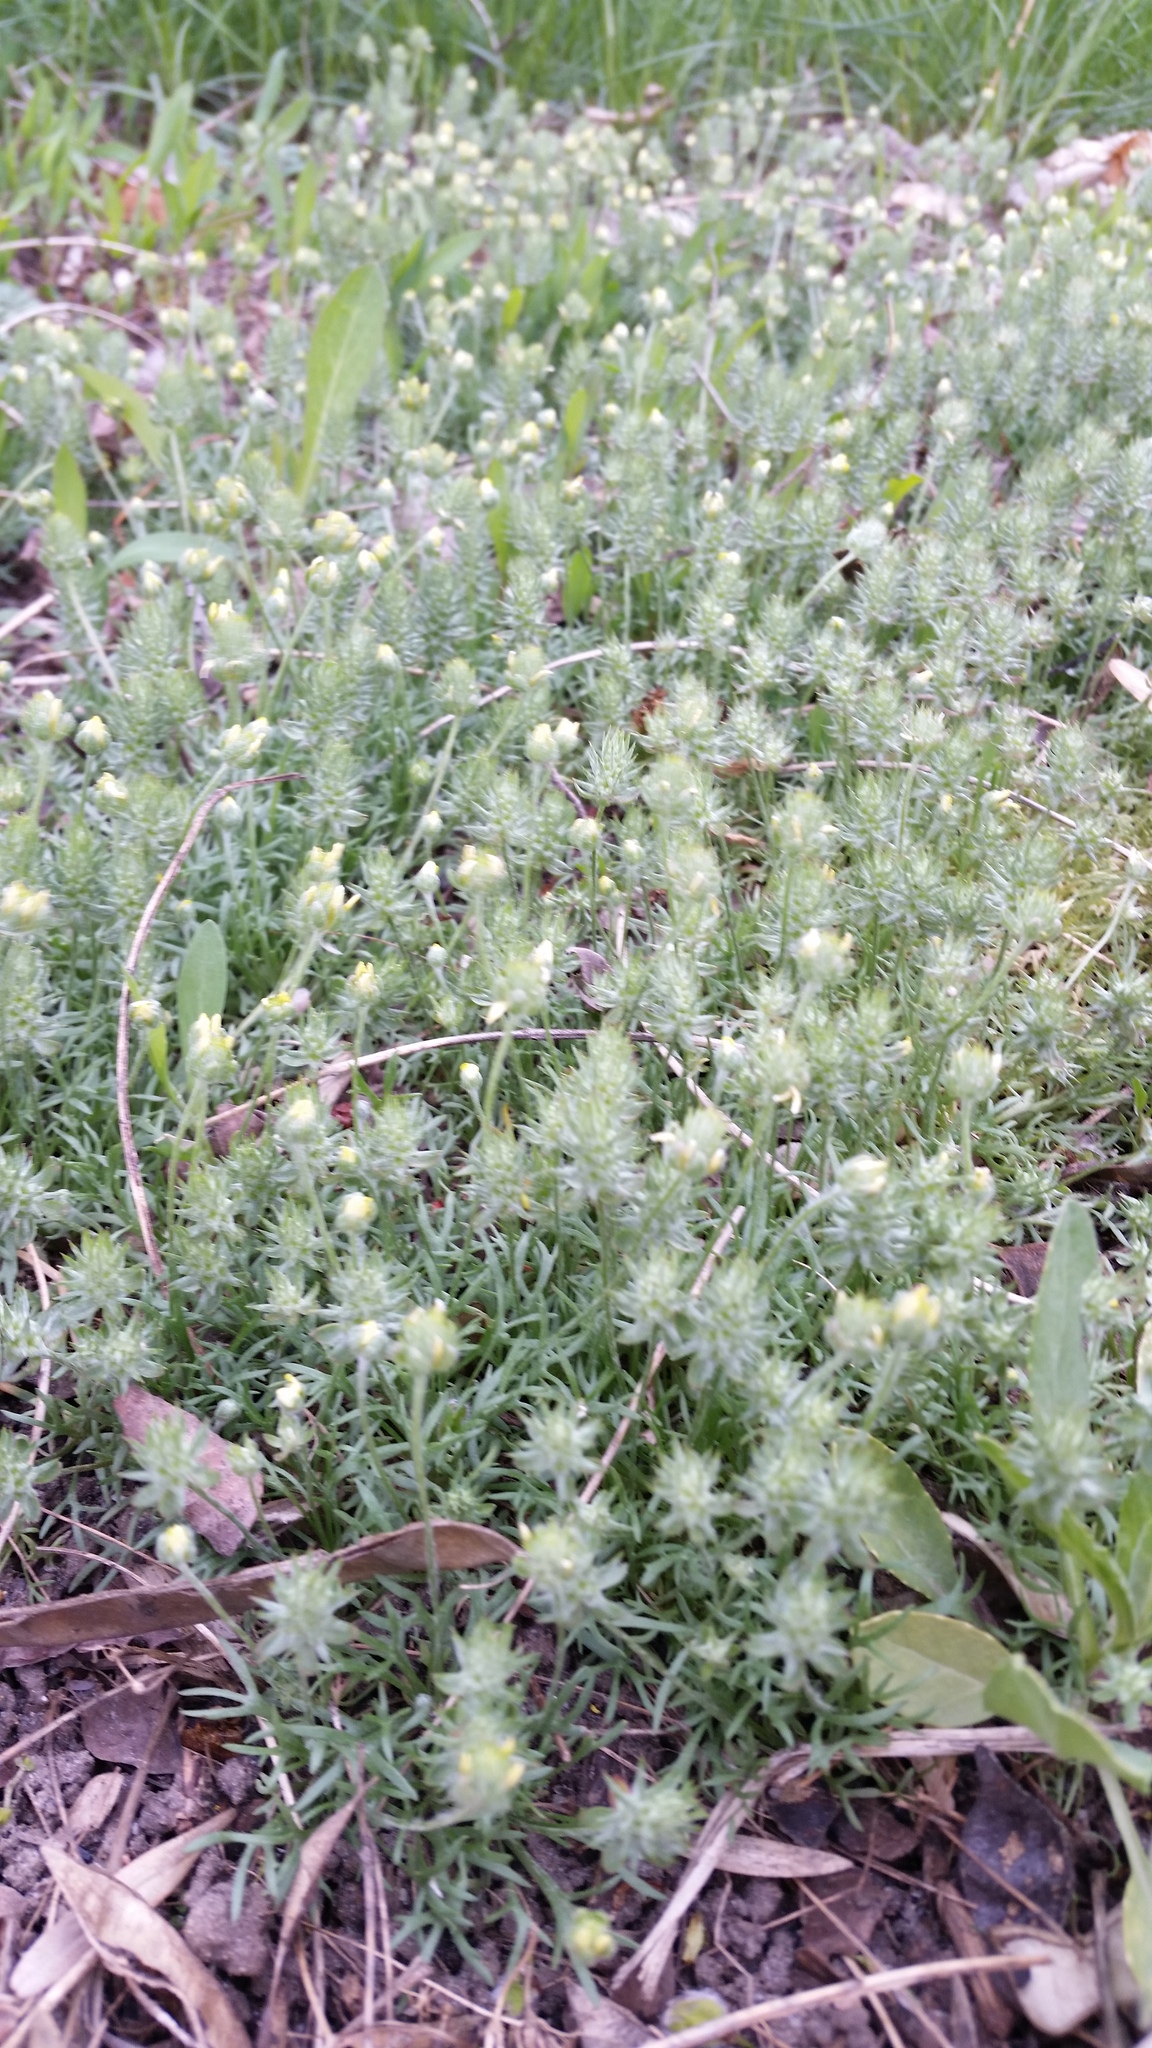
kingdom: Plantae
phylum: Tracheophyta
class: Magnoliopsida
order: Ranunculales
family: Ranunculaceae
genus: Ceratocephala
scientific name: Ceratocephala orthoceras
